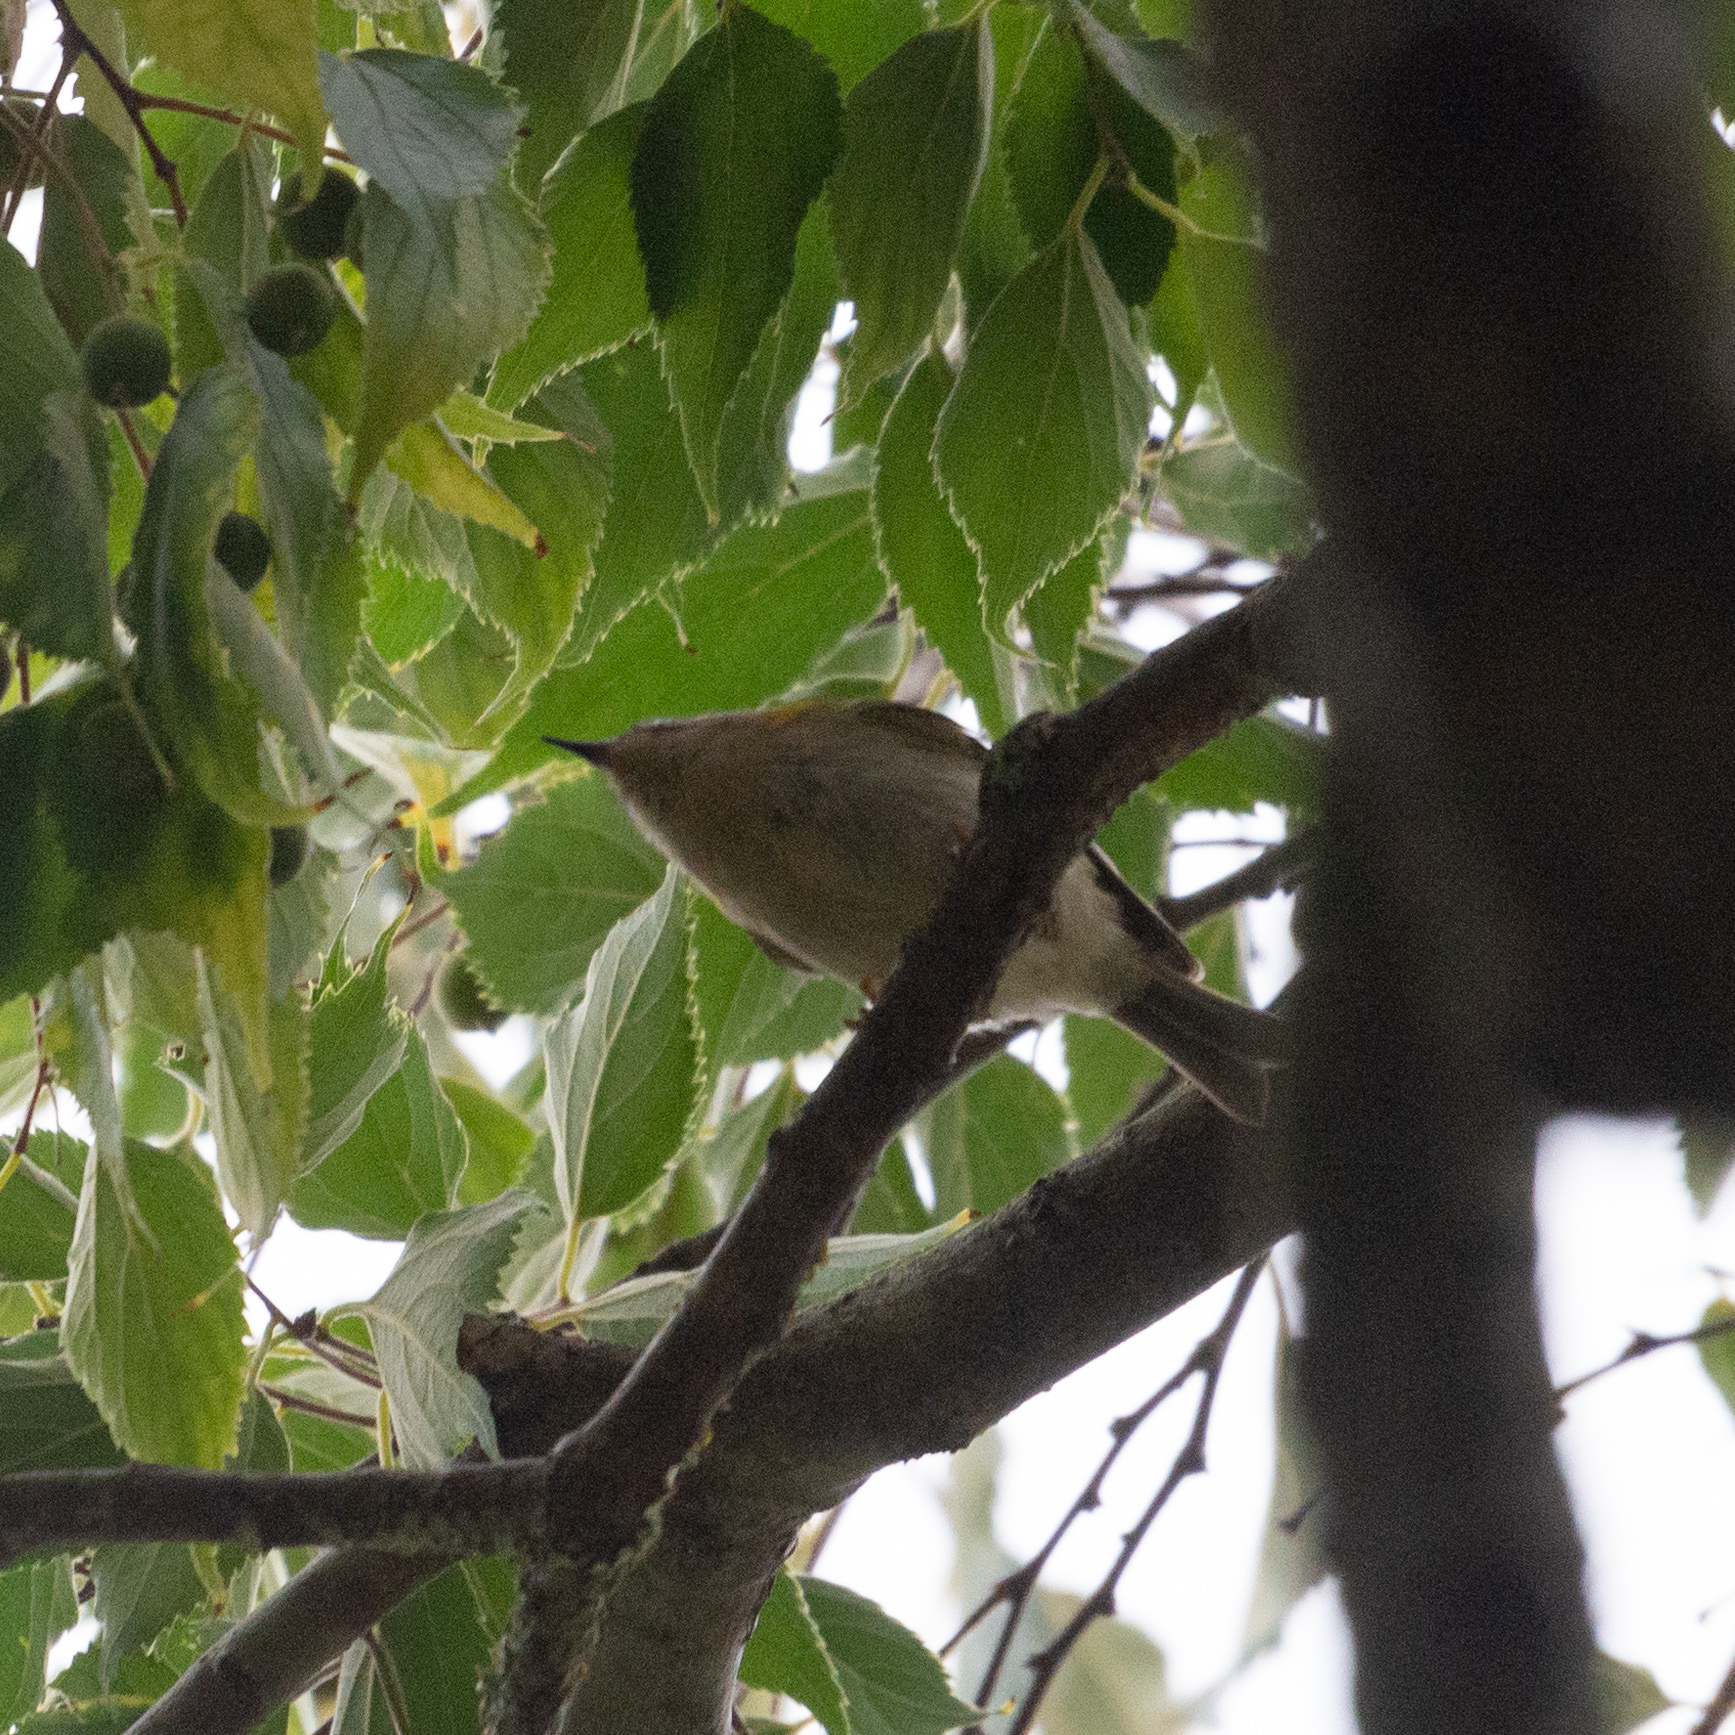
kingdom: Animalia
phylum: Chordata
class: Aves
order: Passeriformes
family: Regulidae
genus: Regulus
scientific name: Regulus ignicapilla
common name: Firecrest
